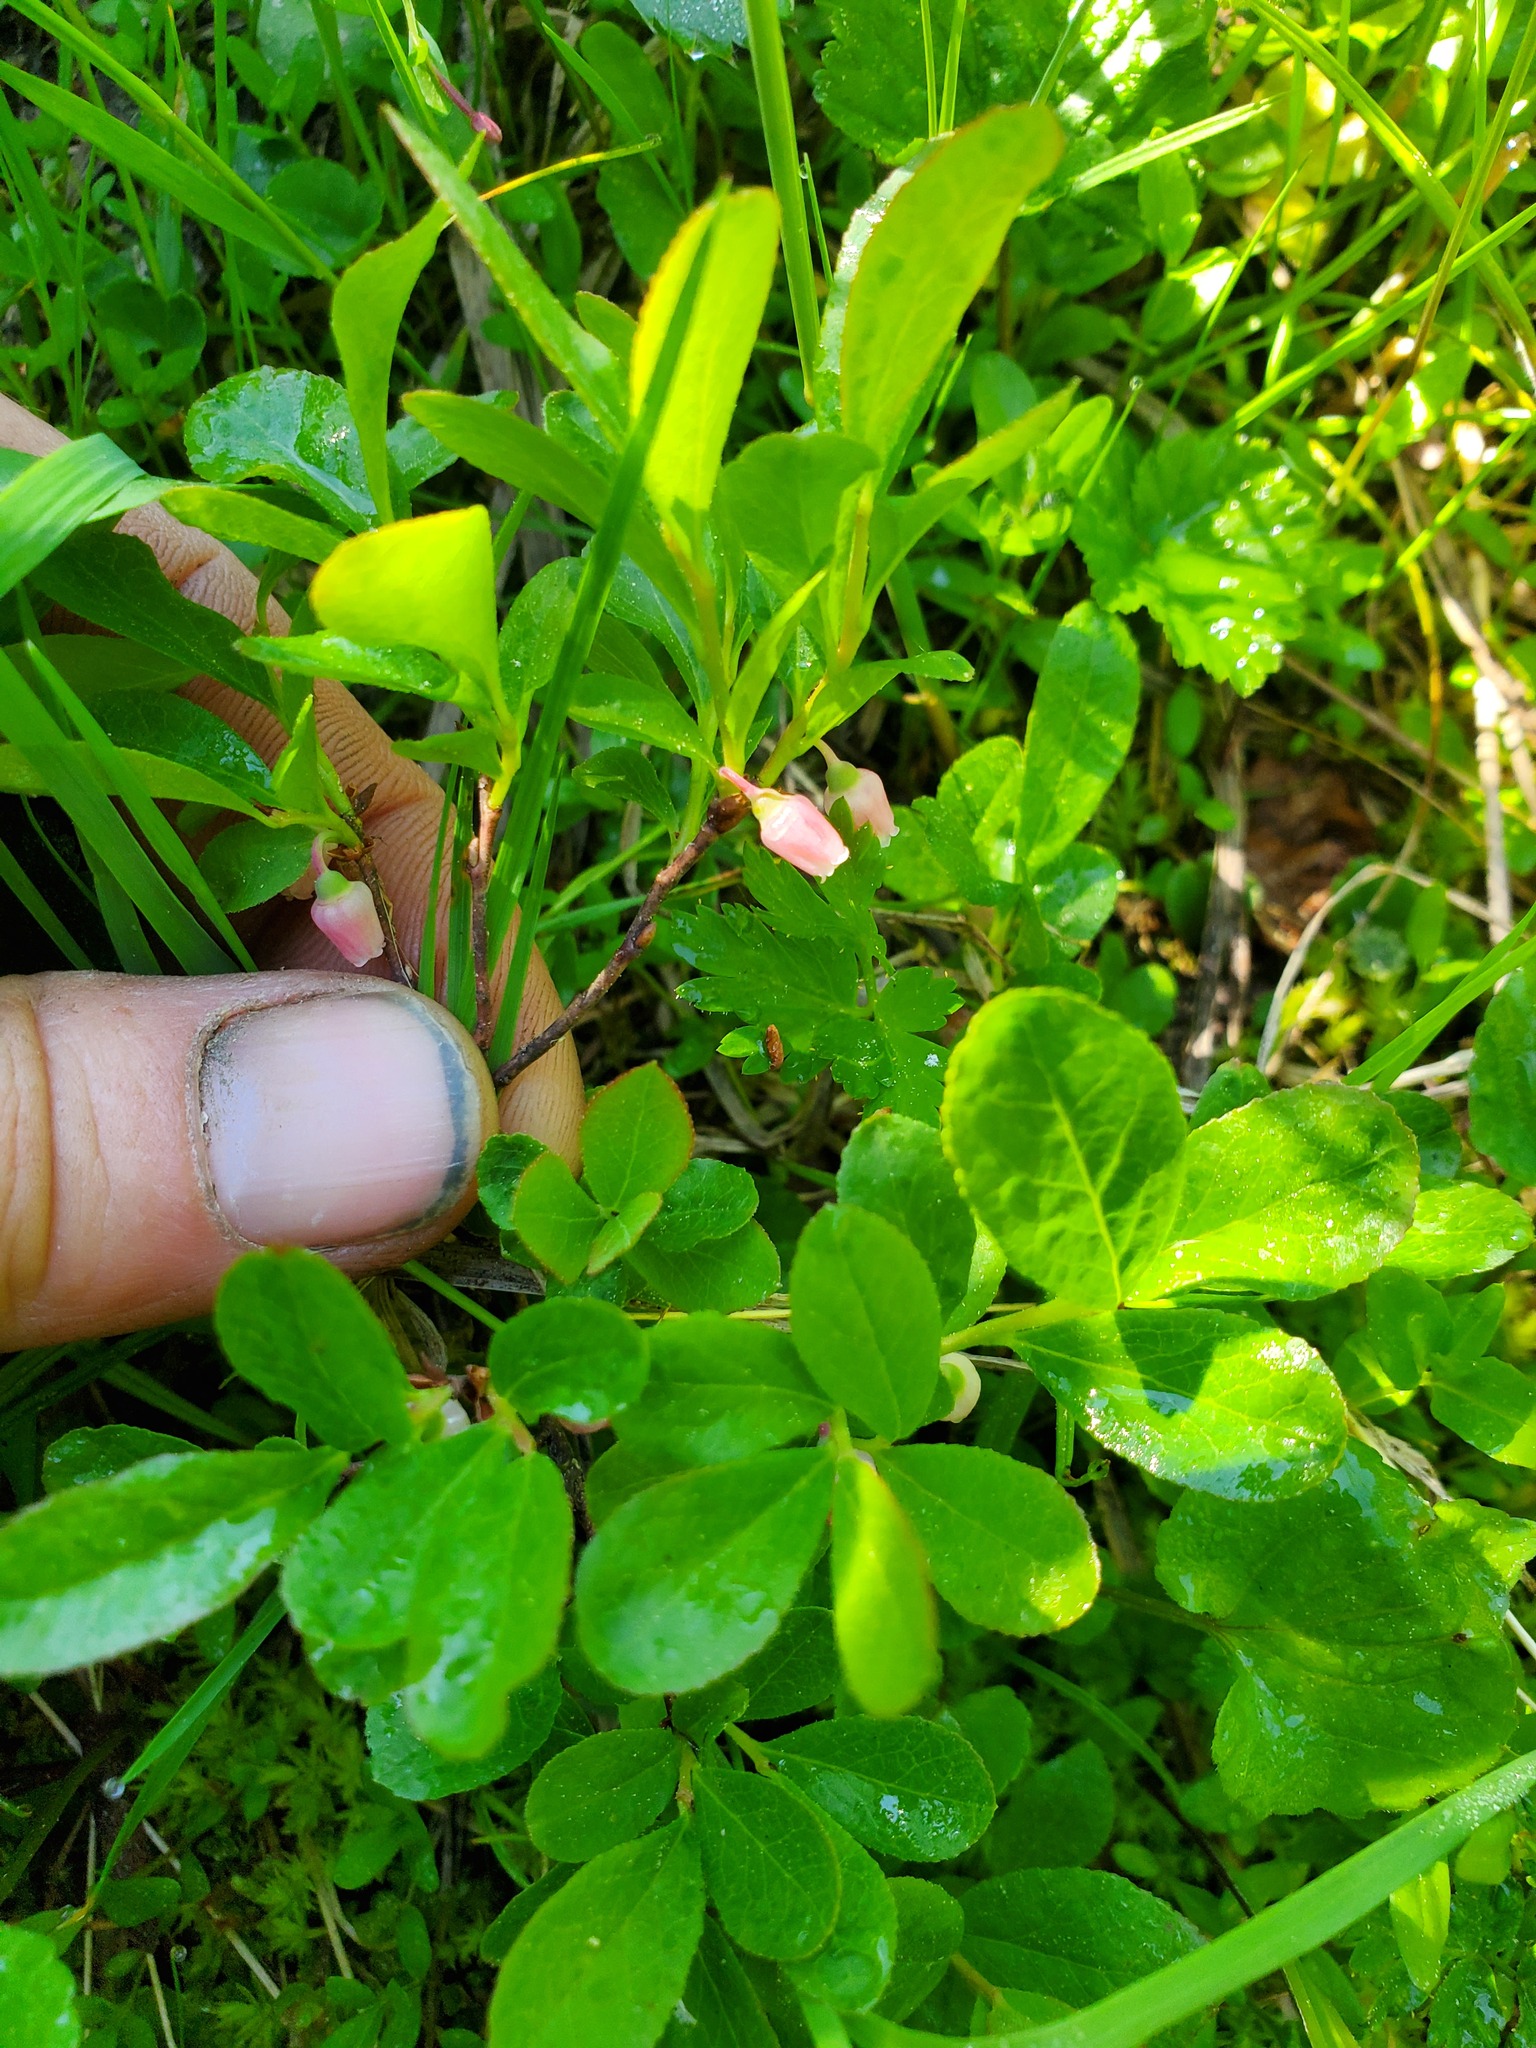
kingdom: Plantae
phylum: Tracheophyta
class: Magnoliopsida
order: Ericales
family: Ericaceae
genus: Vaccinium
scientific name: Vaccinium cespitosum
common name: Dwarf bilberry
